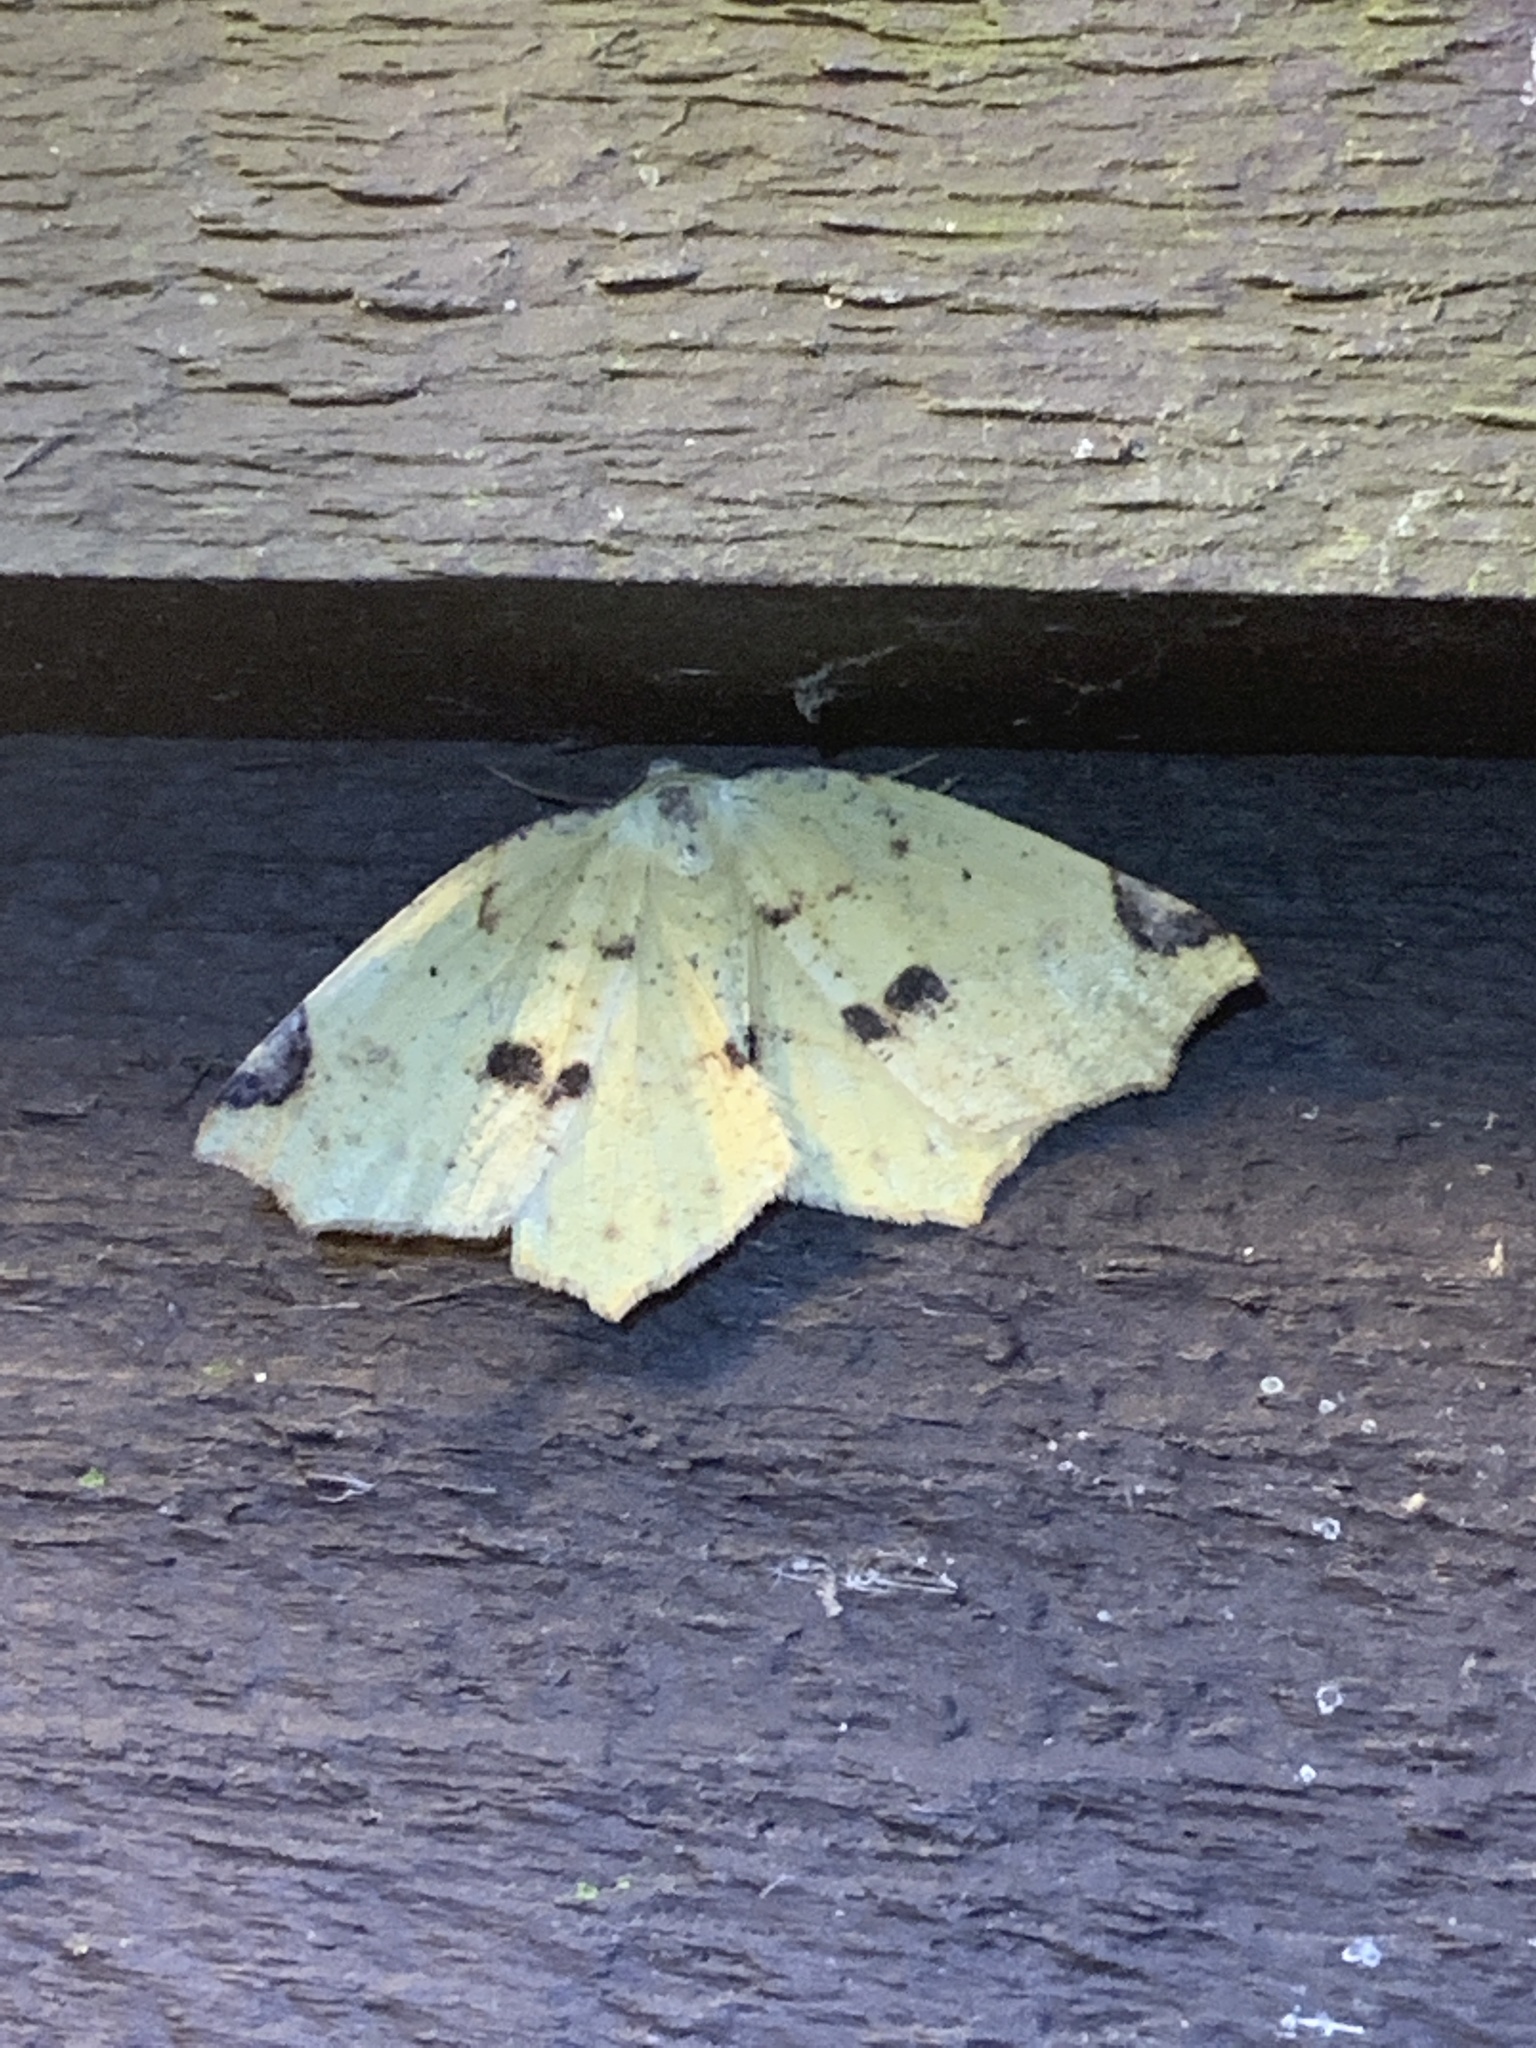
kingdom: Animalia
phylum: Arthropoda
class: Insecta
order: Lepidoptera
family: Geometridae
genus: Antepione
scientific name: Antepione thisoaria
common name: Variable antipione
